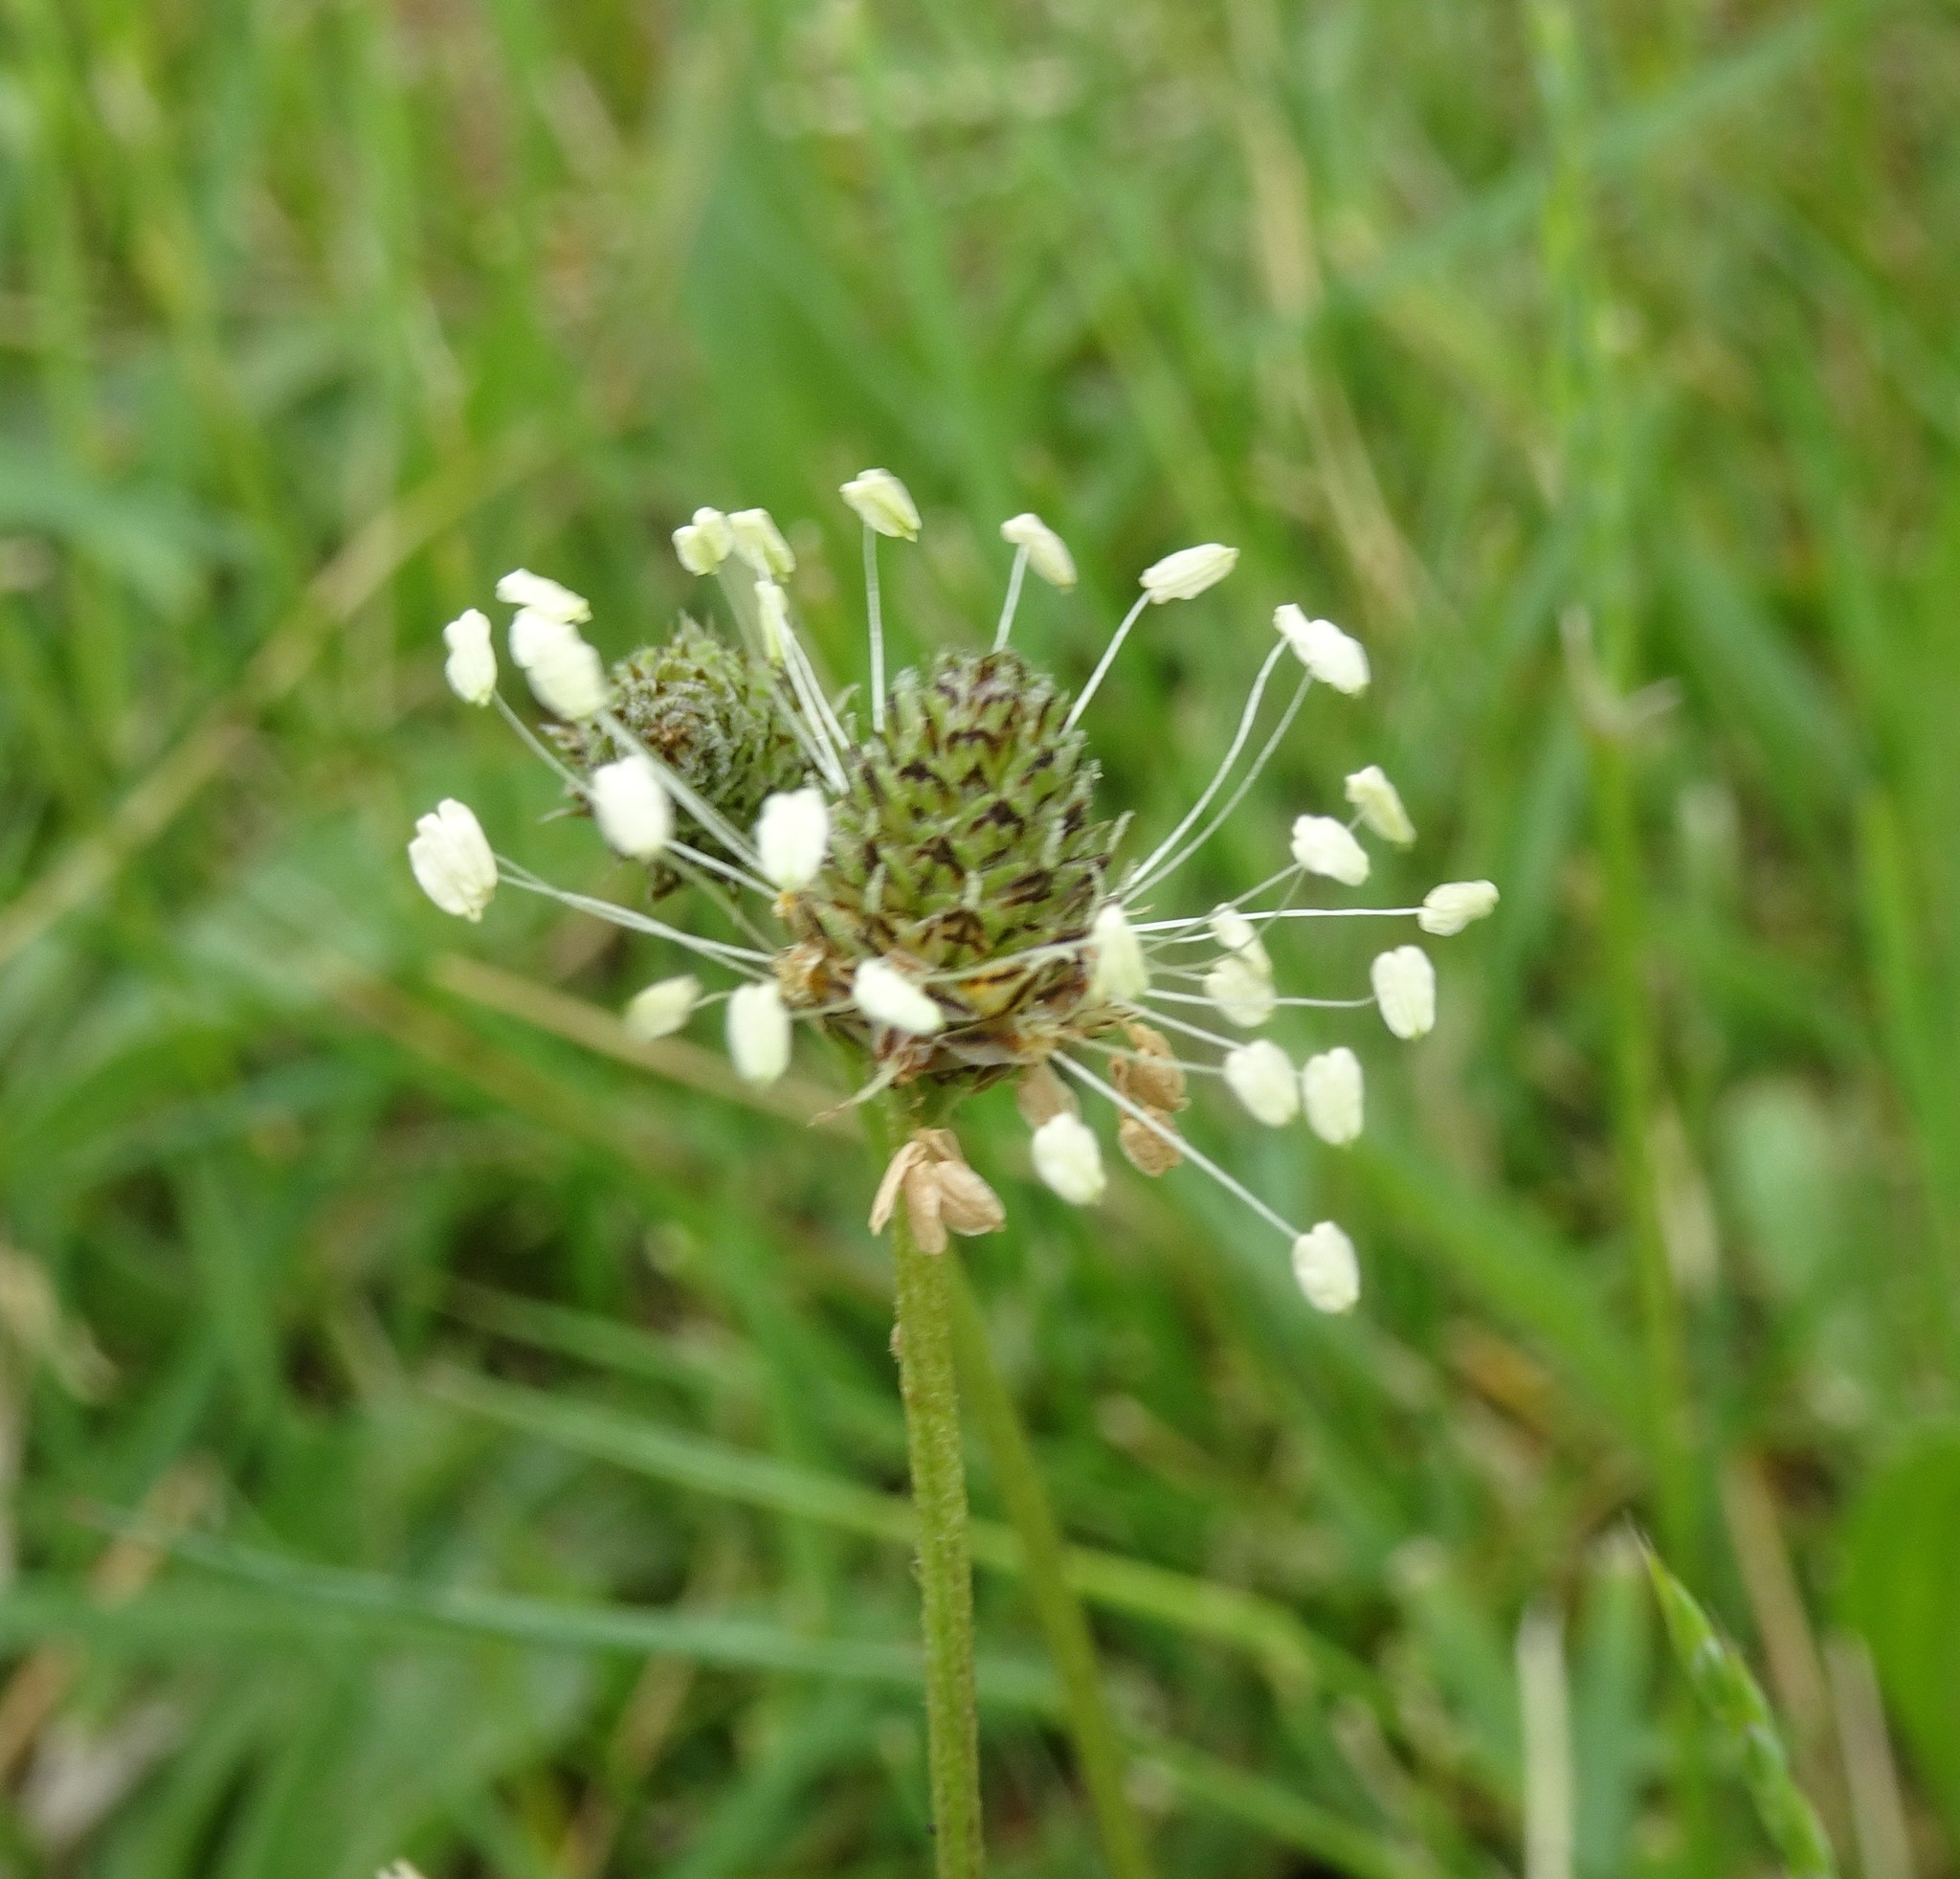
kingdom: Plantae
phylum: Tracheophyta
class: Magnoliopsida
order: Lamiales
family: Plantaginaceae
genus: Plantago
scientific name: Plantago lanceolata
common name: Ribwort plantain
